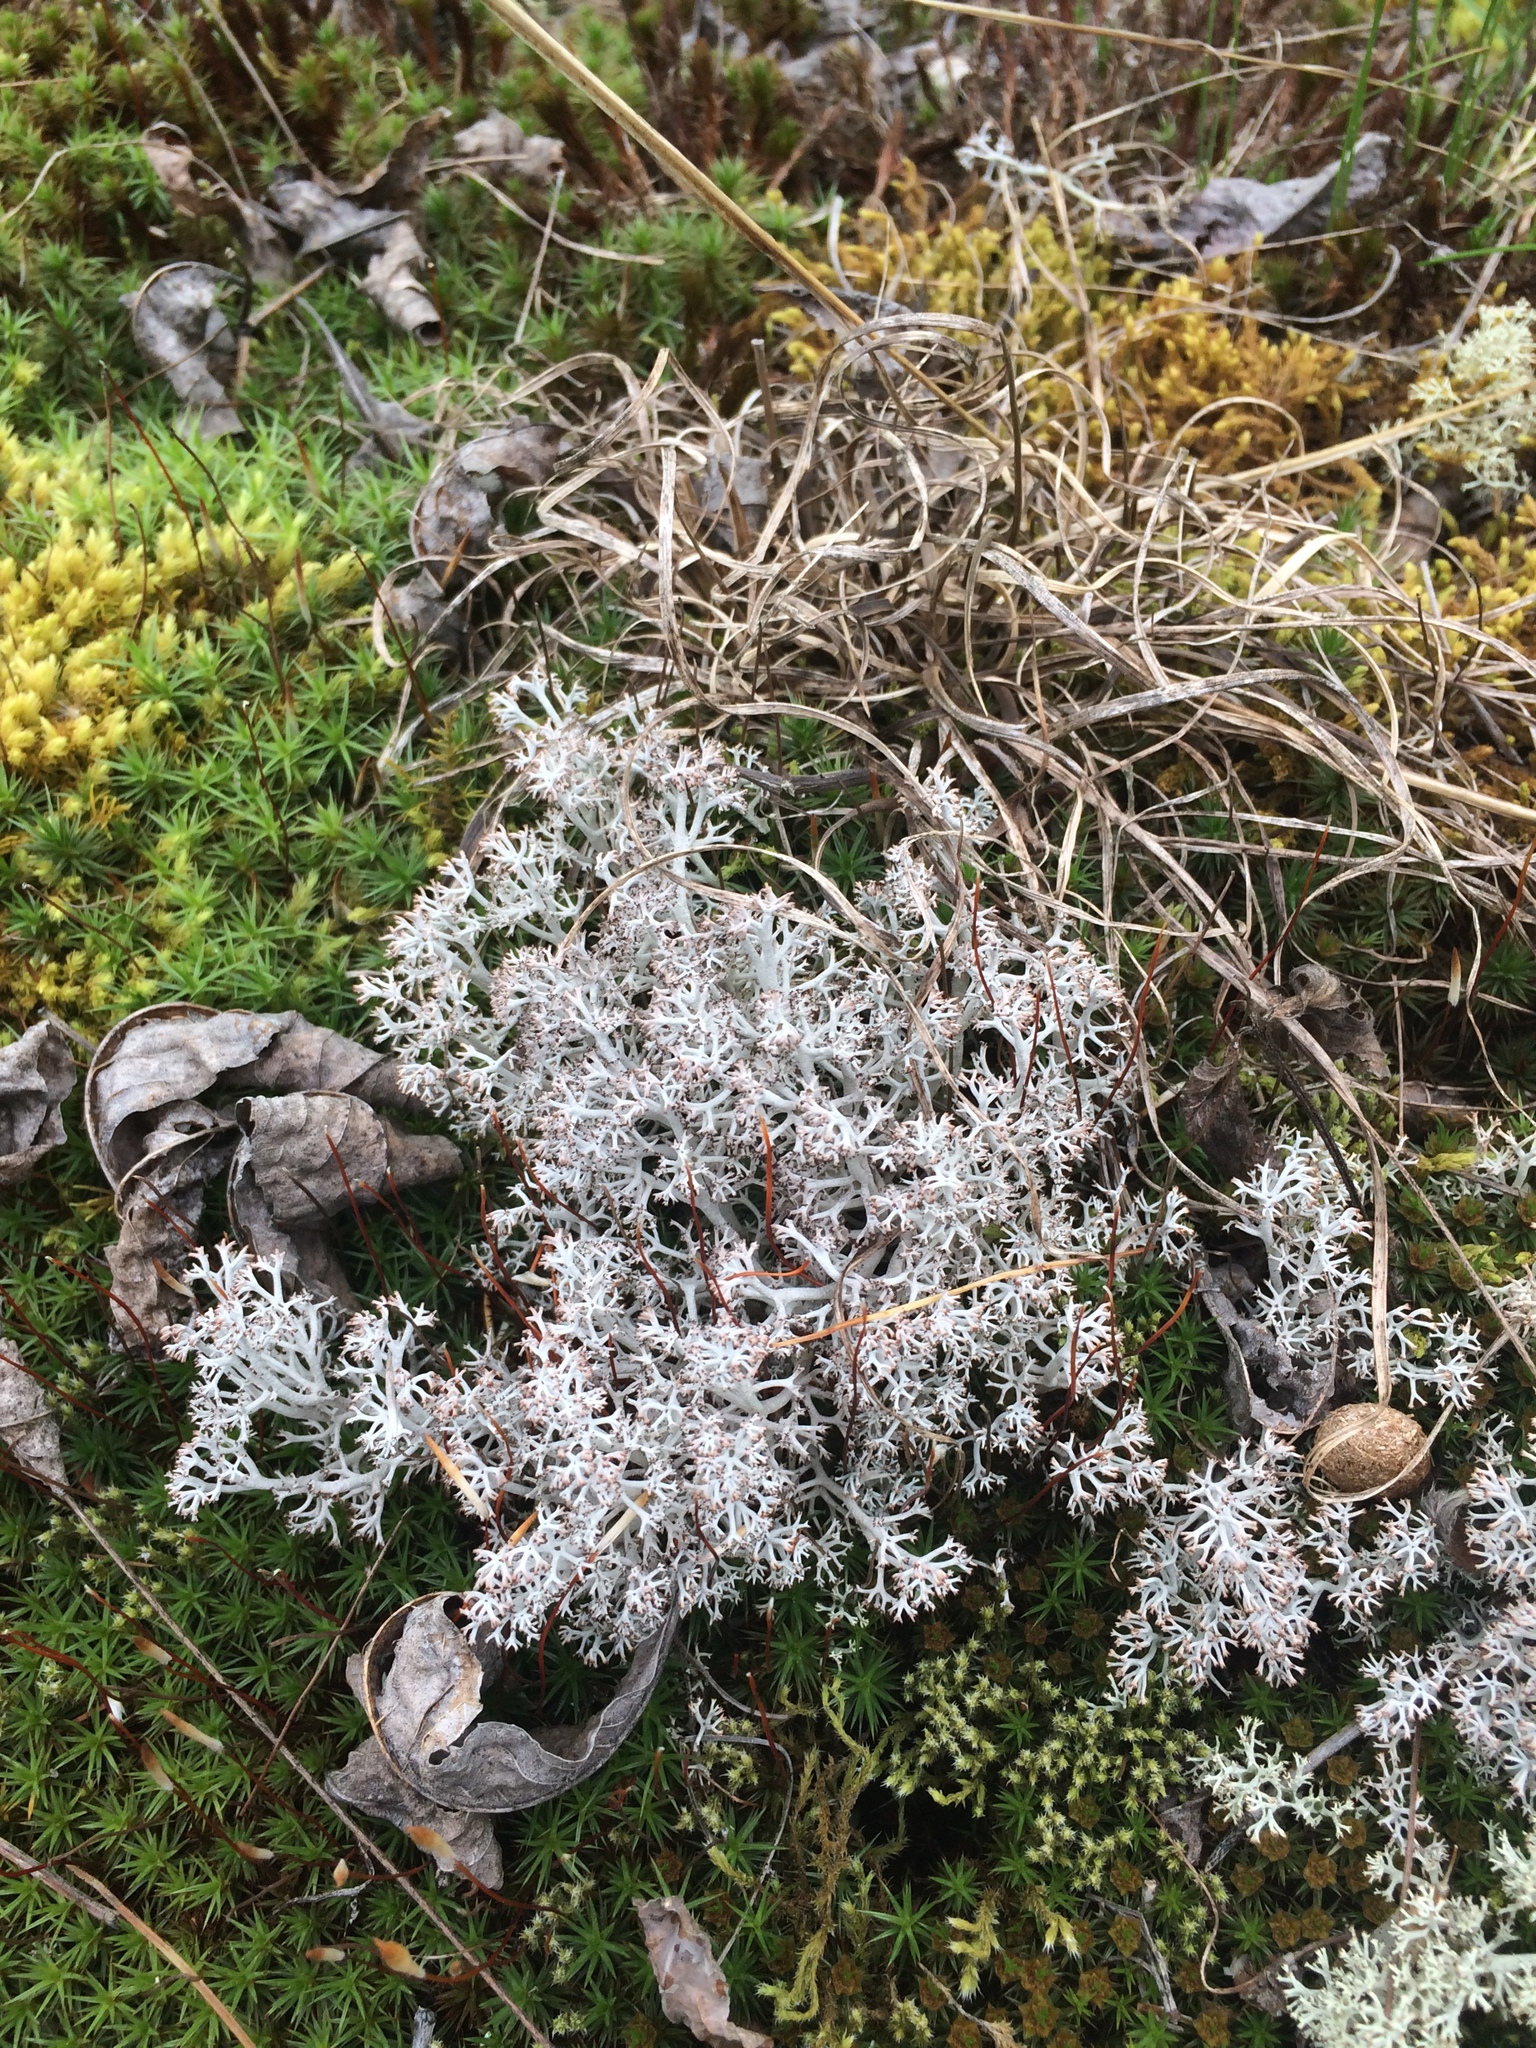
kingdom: Fungi
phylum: Ascomycota
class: Lecanoromycetes
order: Lecanorales
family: Cladoniaceae
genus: Cladonia
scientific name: Cladonia rangiferina
